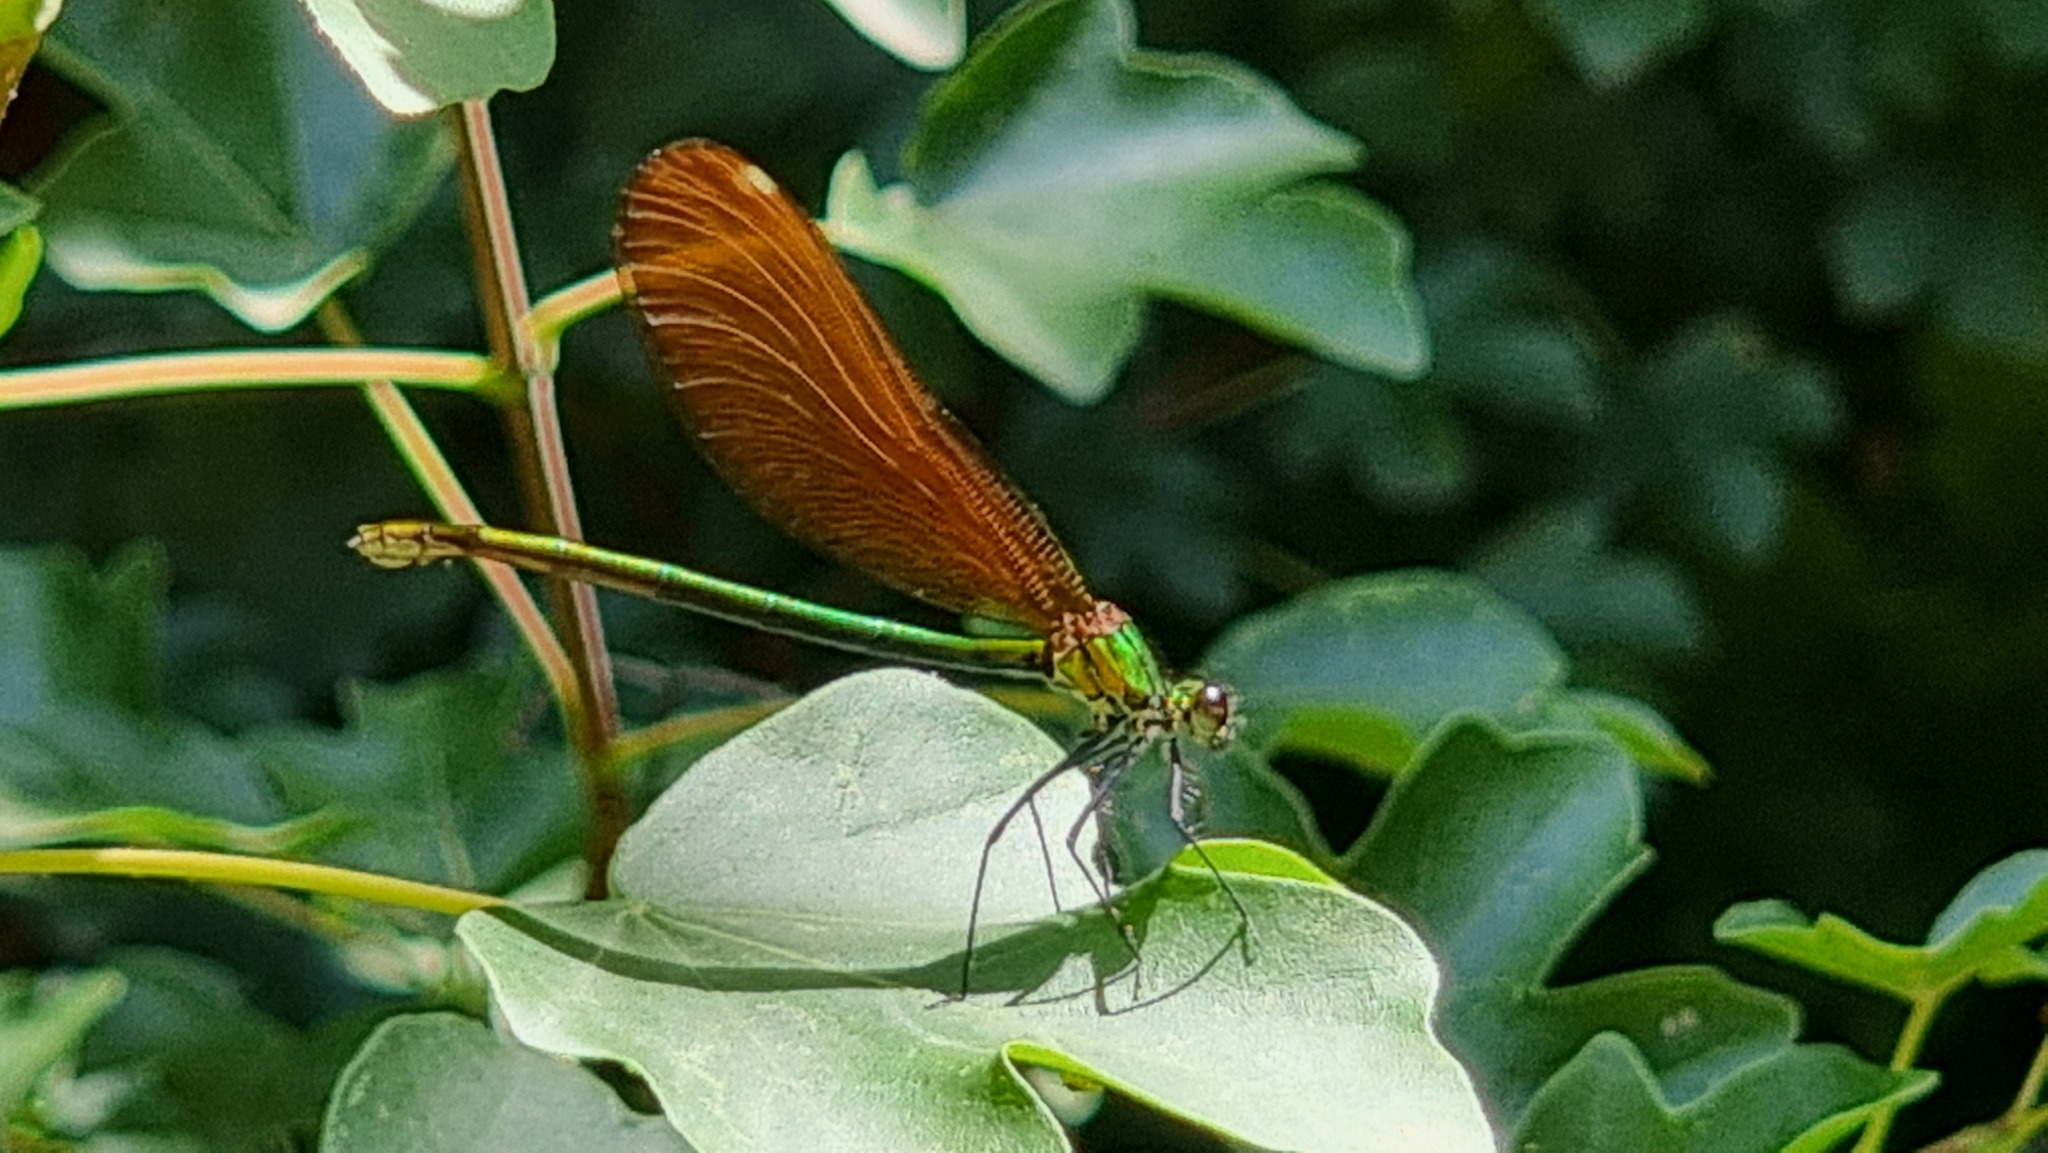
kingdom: Animalia
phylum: Arthropoda
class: Insecta
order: Odonata
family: Calopterygidae
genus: Calopteryx
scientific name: Calopteryx virgo
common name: Beautiful demoiselle
